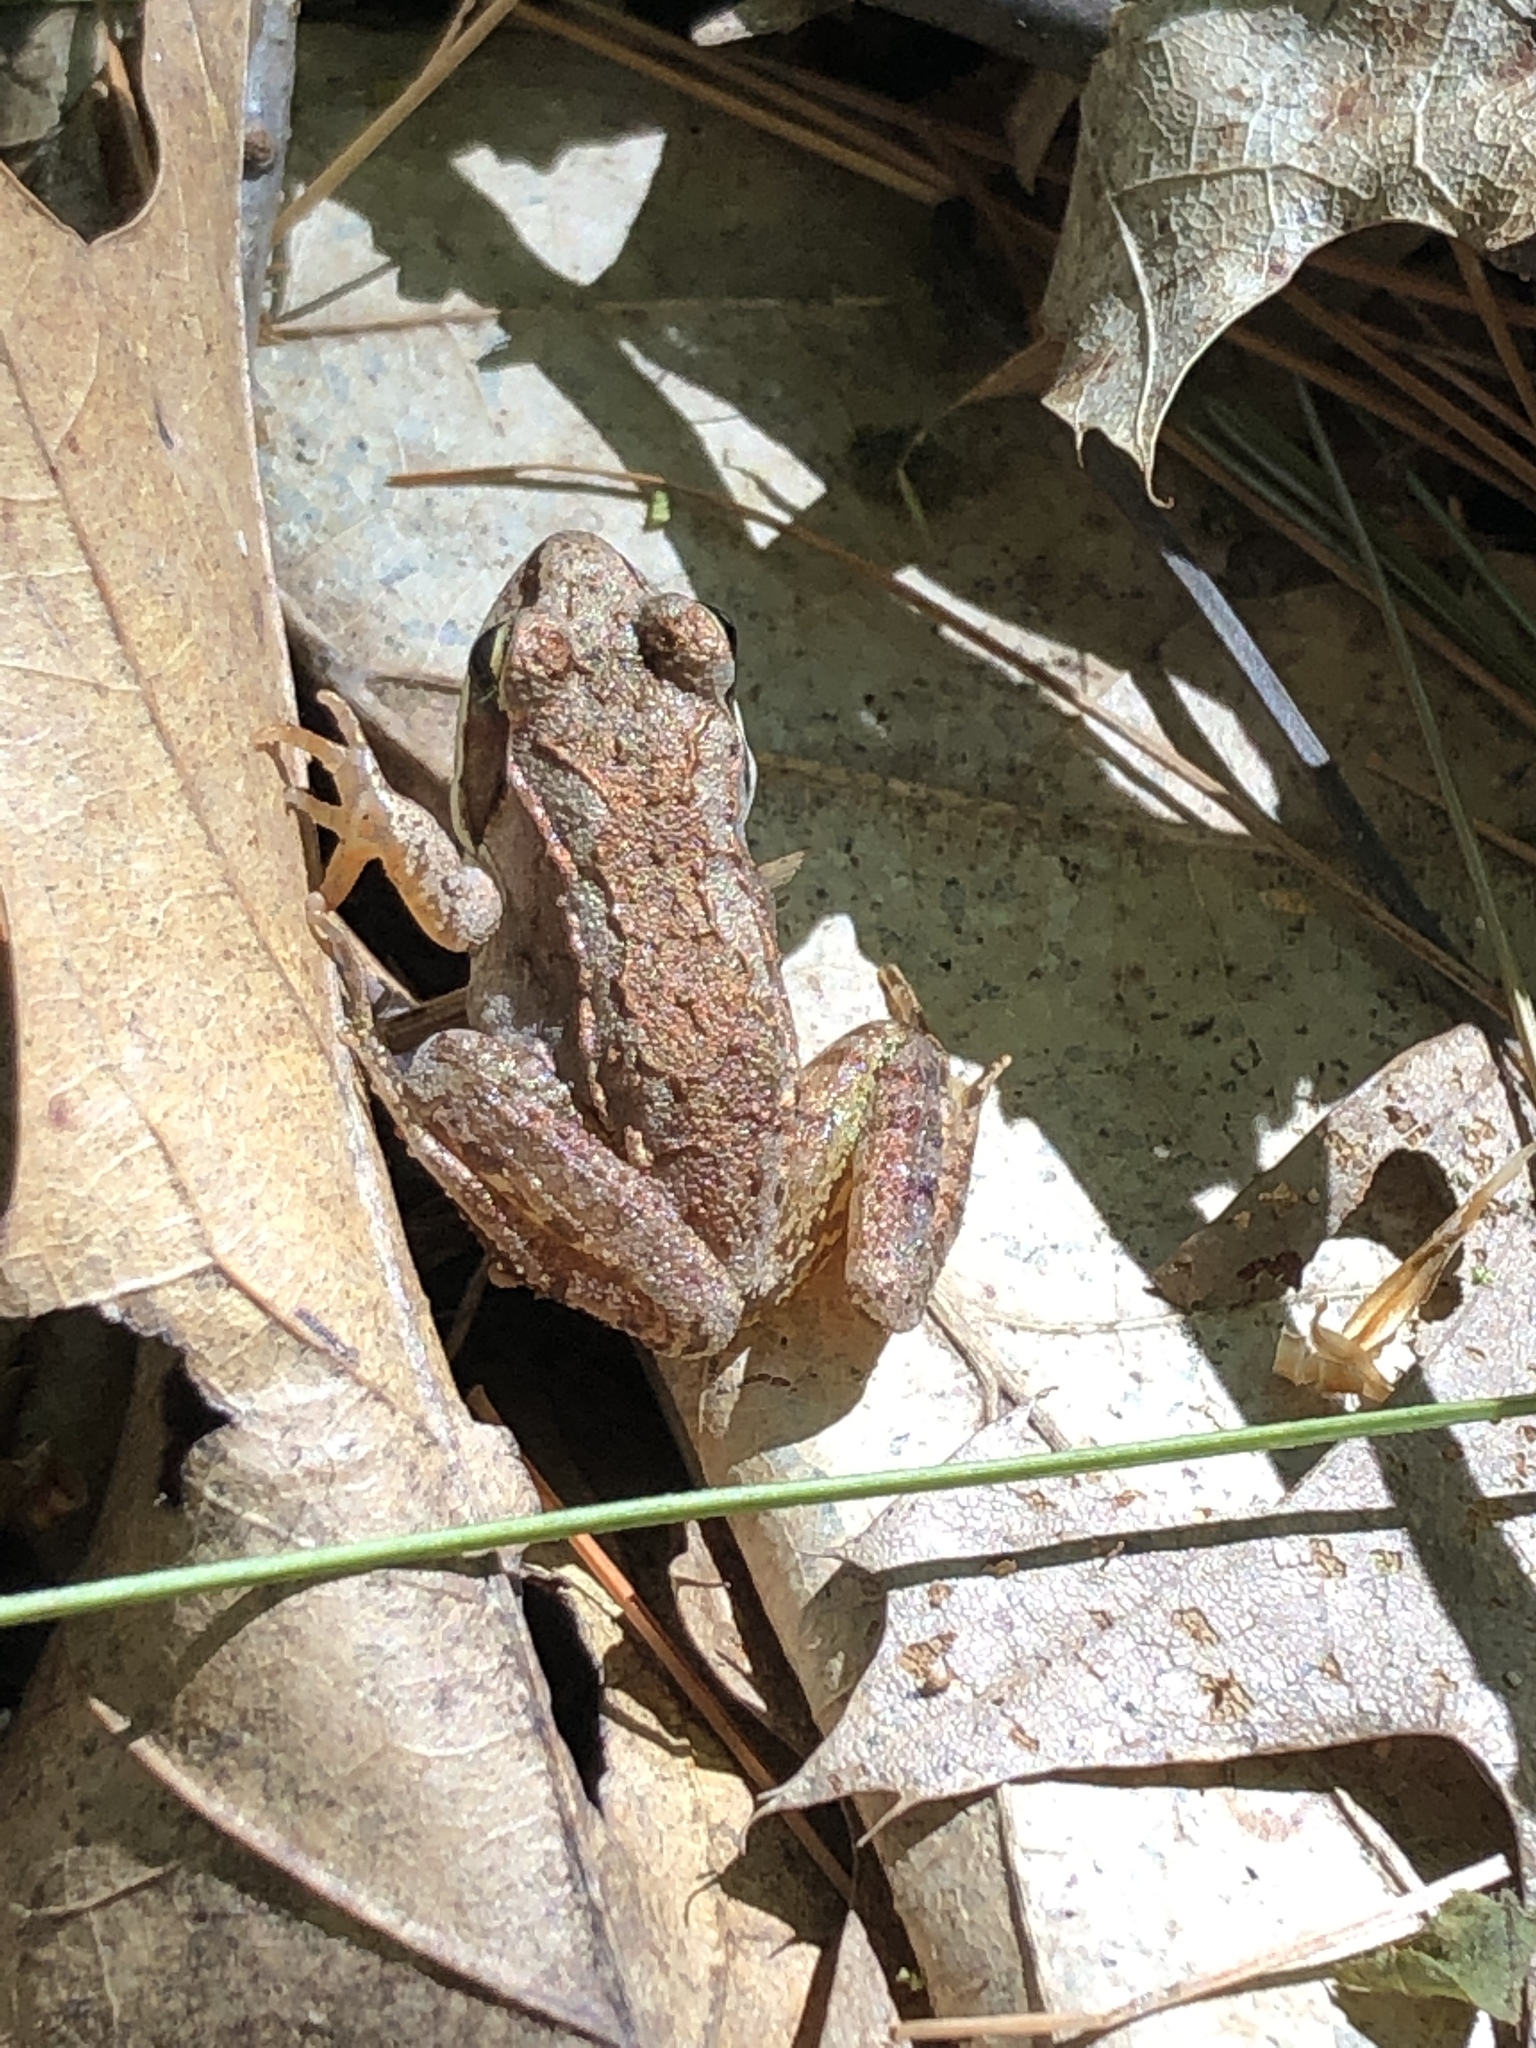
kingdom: Animalia
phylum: Chordata
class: Amphibia
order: Anura
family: Ranidae
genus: Lithobates
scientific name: Lithobates sylvaticus
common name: Wood frog
